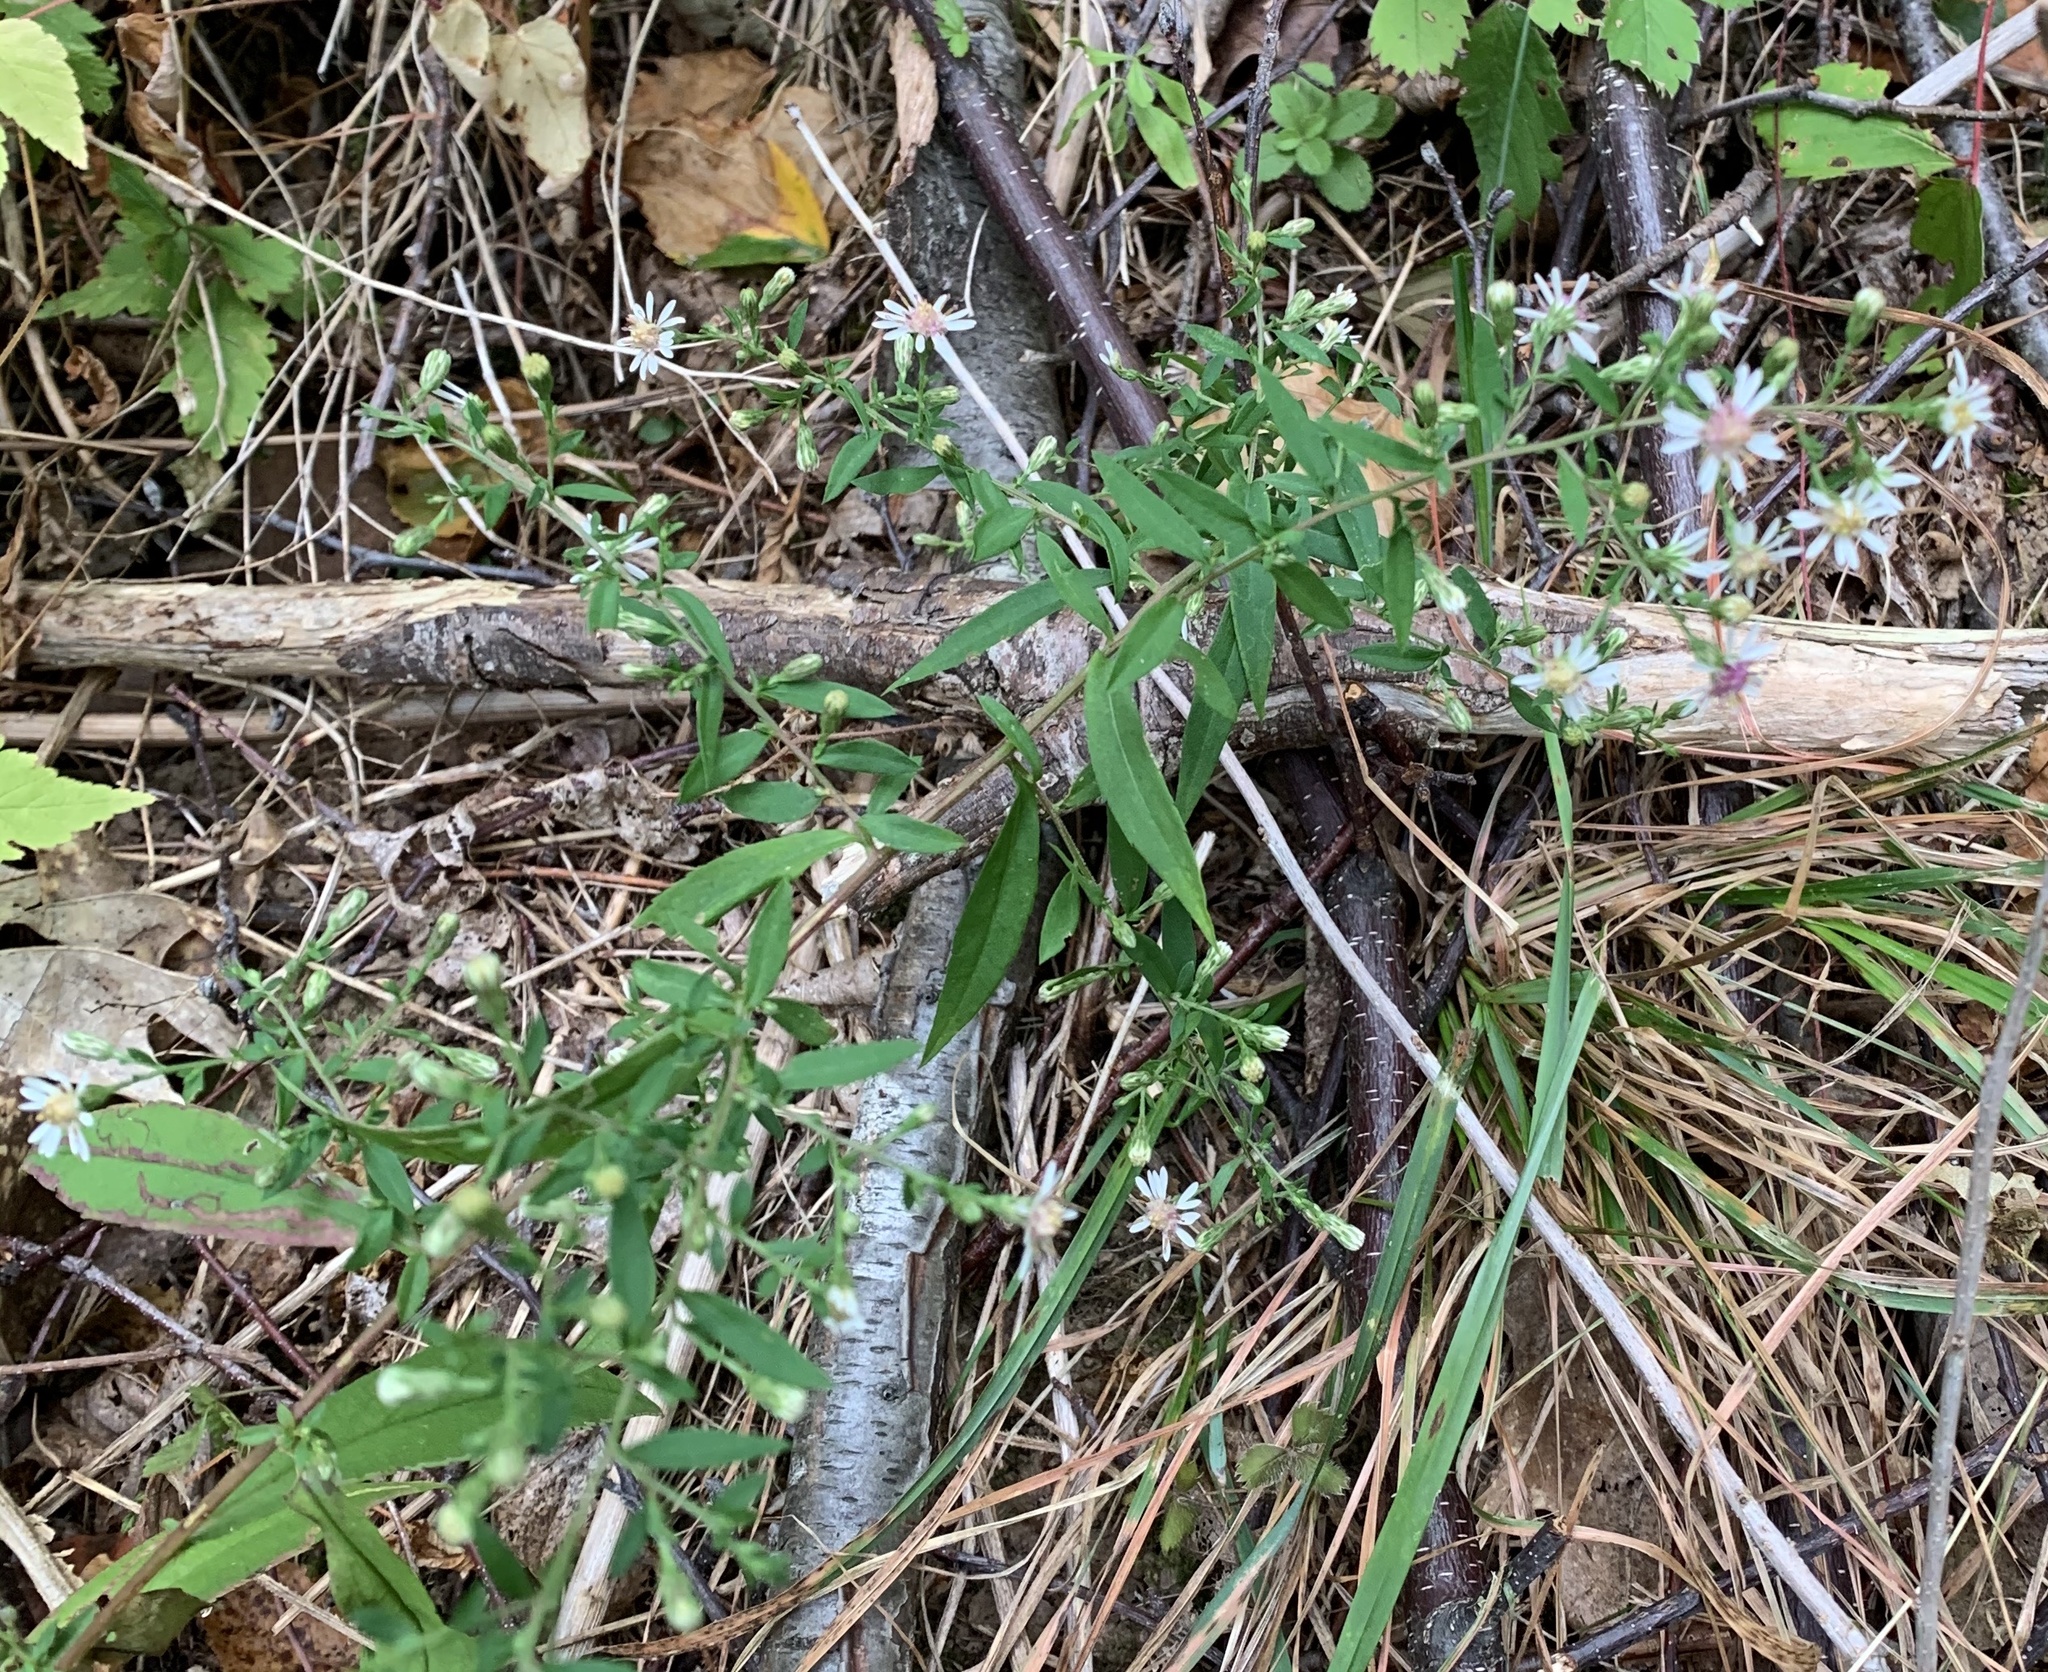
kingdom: Plantae
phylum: Tracheophyta
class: Magnoliopsida
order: Asterales
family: Asteraceae
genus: Symphyotrichum
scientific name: Symphyotrichum lateriflorum
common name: Calico aster
